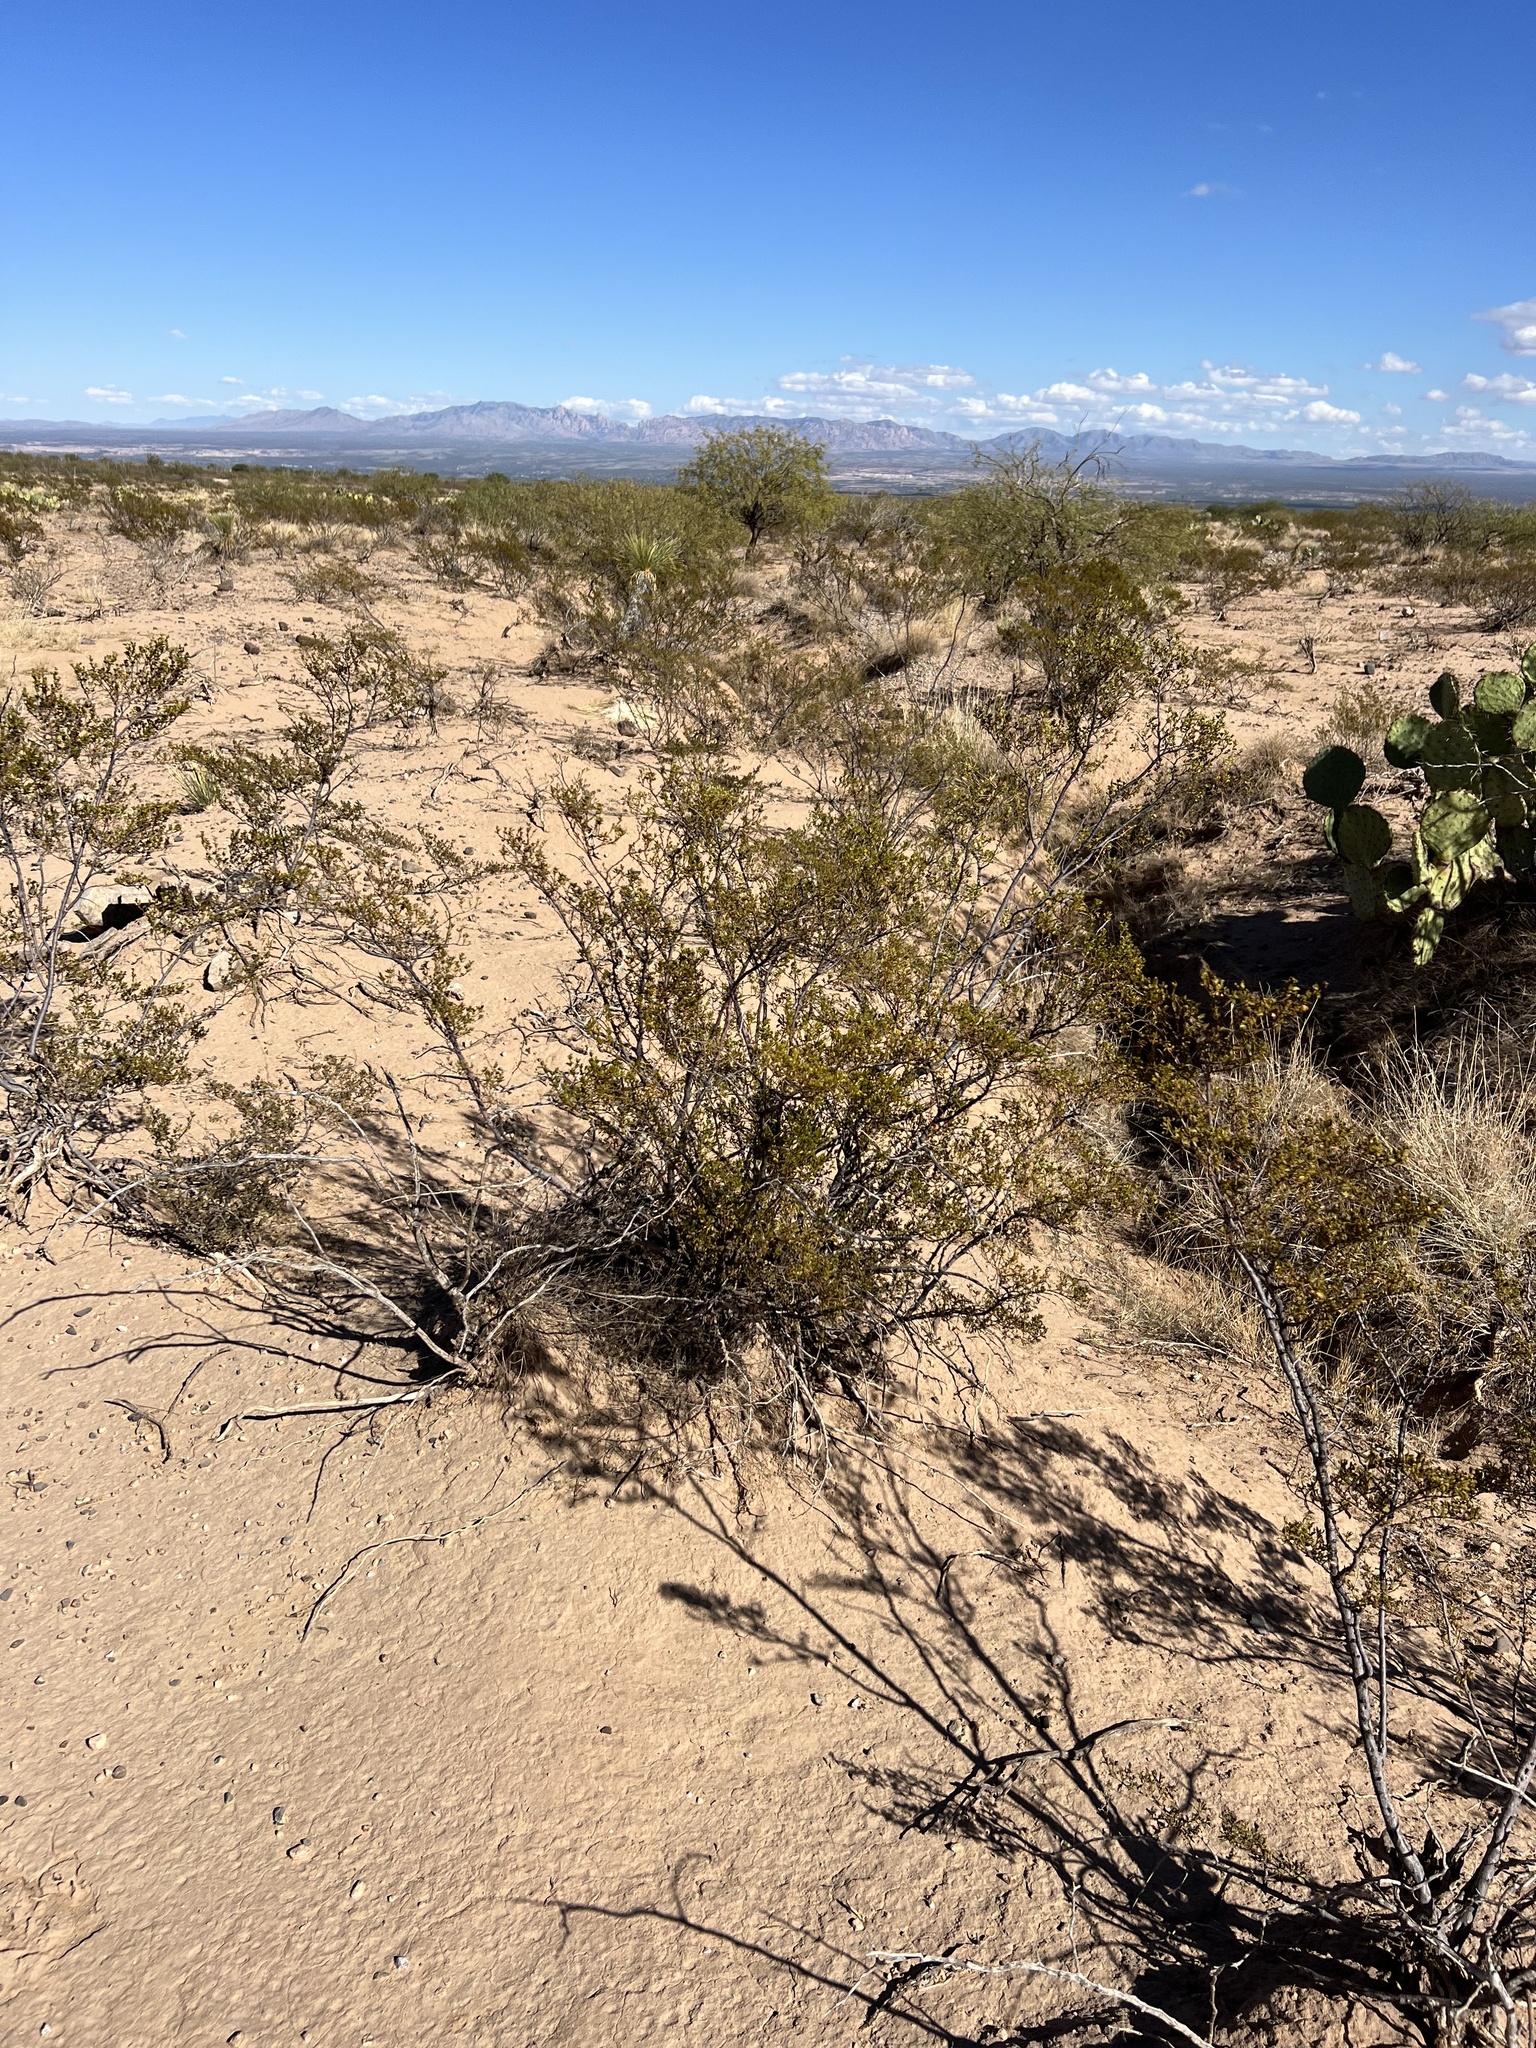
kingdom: Plantae
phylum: Tracheophyta
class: Magnoliopsida
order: Zygophyllales
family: Zygophyllaceae
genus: Larrea
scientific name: Larrea tridentata
